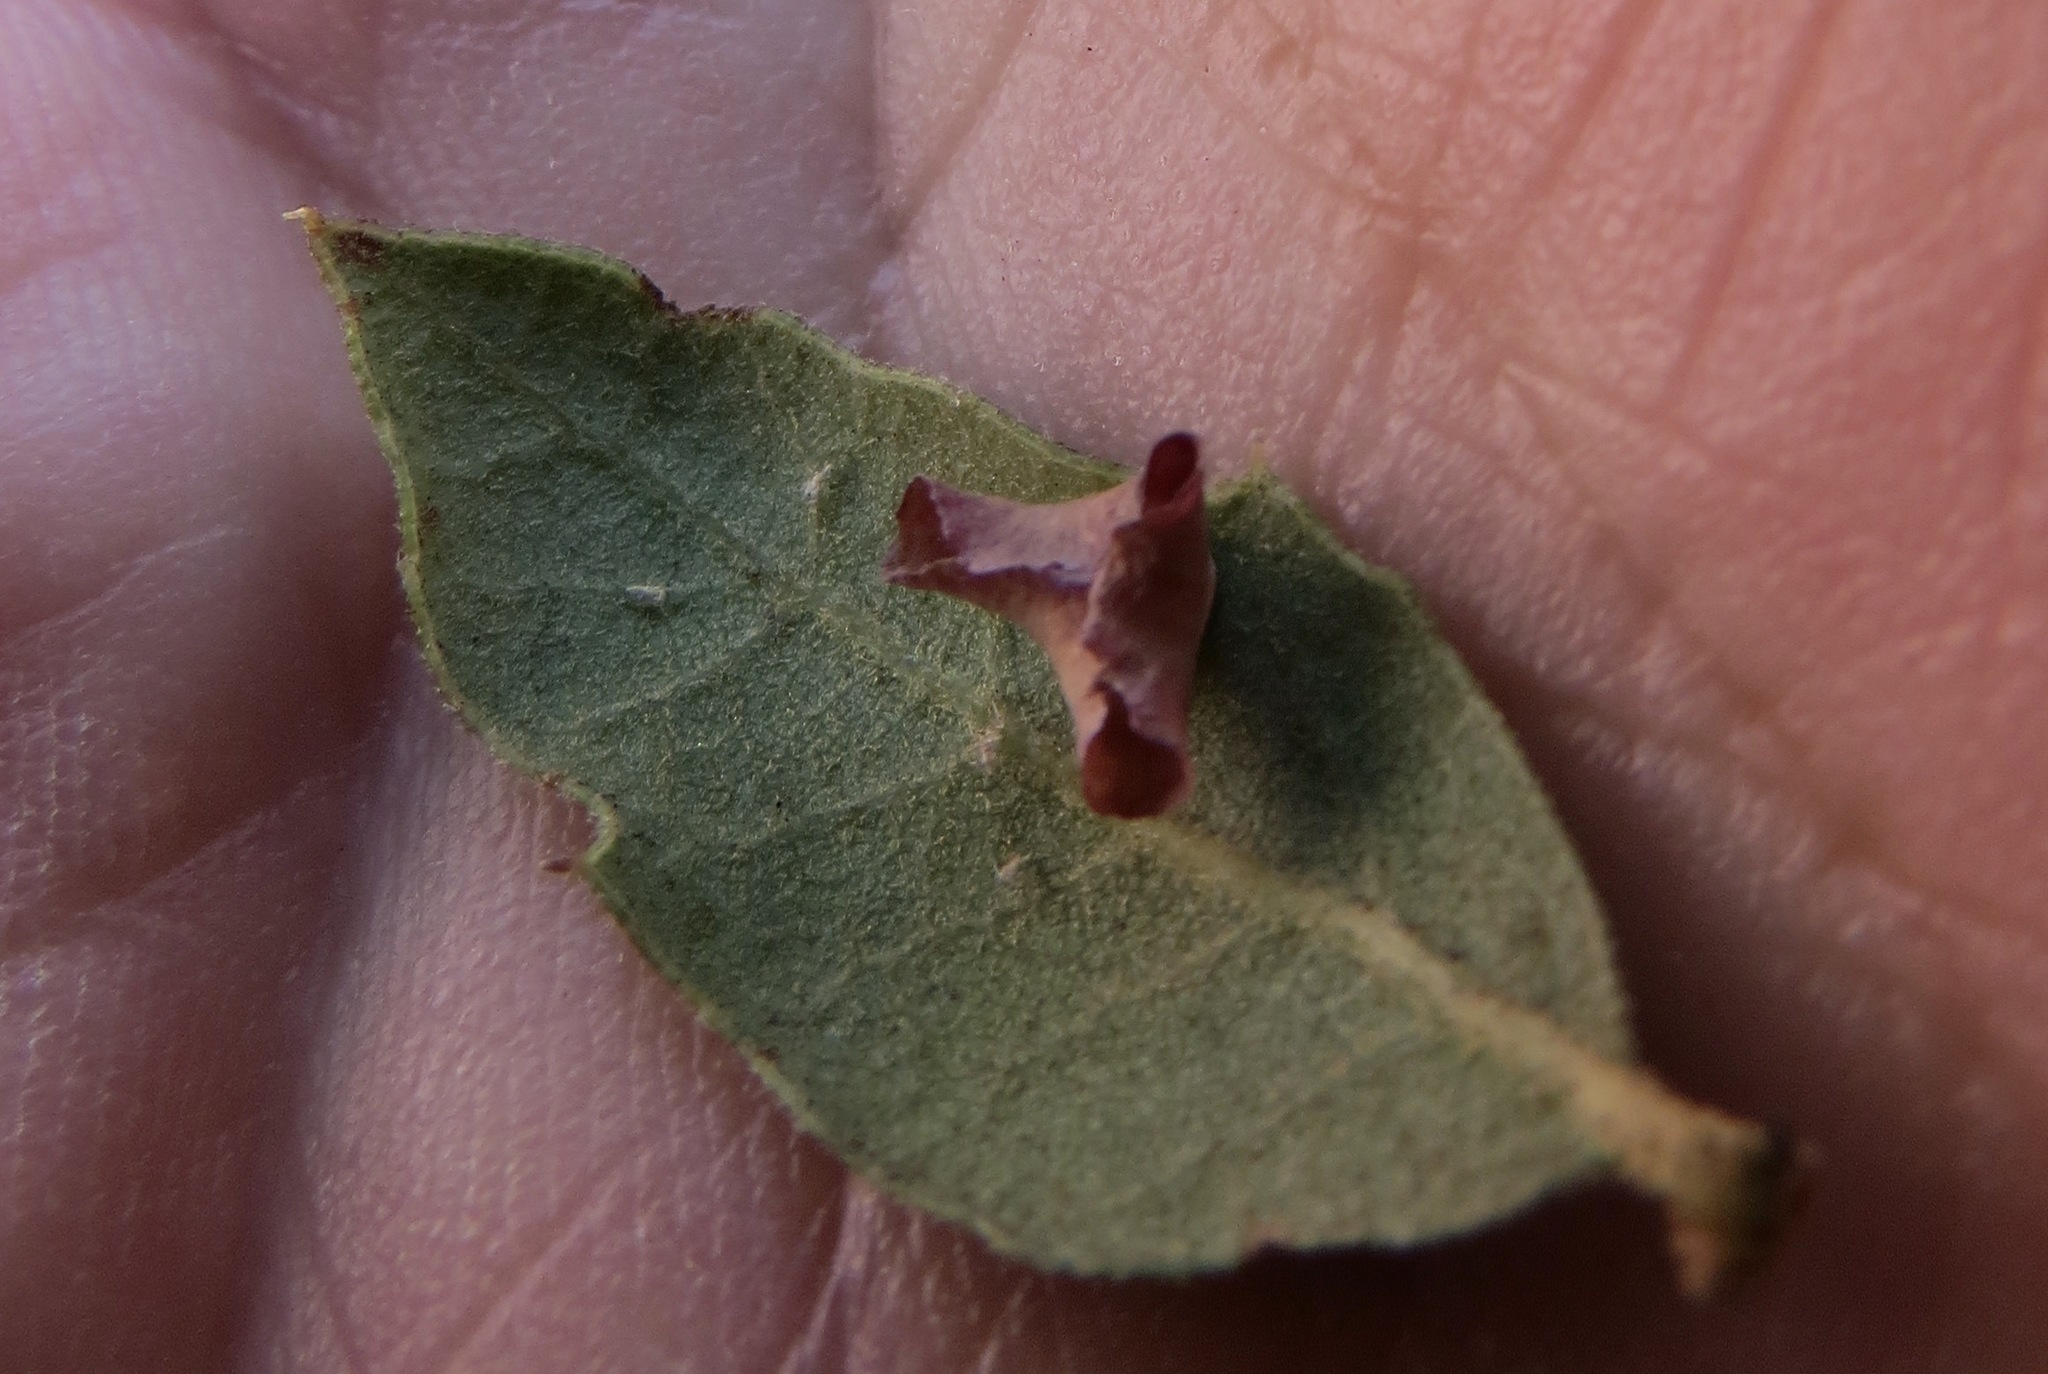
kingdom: Animalia
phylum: Arthropoda
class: Insecta
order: Hymenoptera
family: Cynipidae
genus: Andricus
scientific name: Andricus
